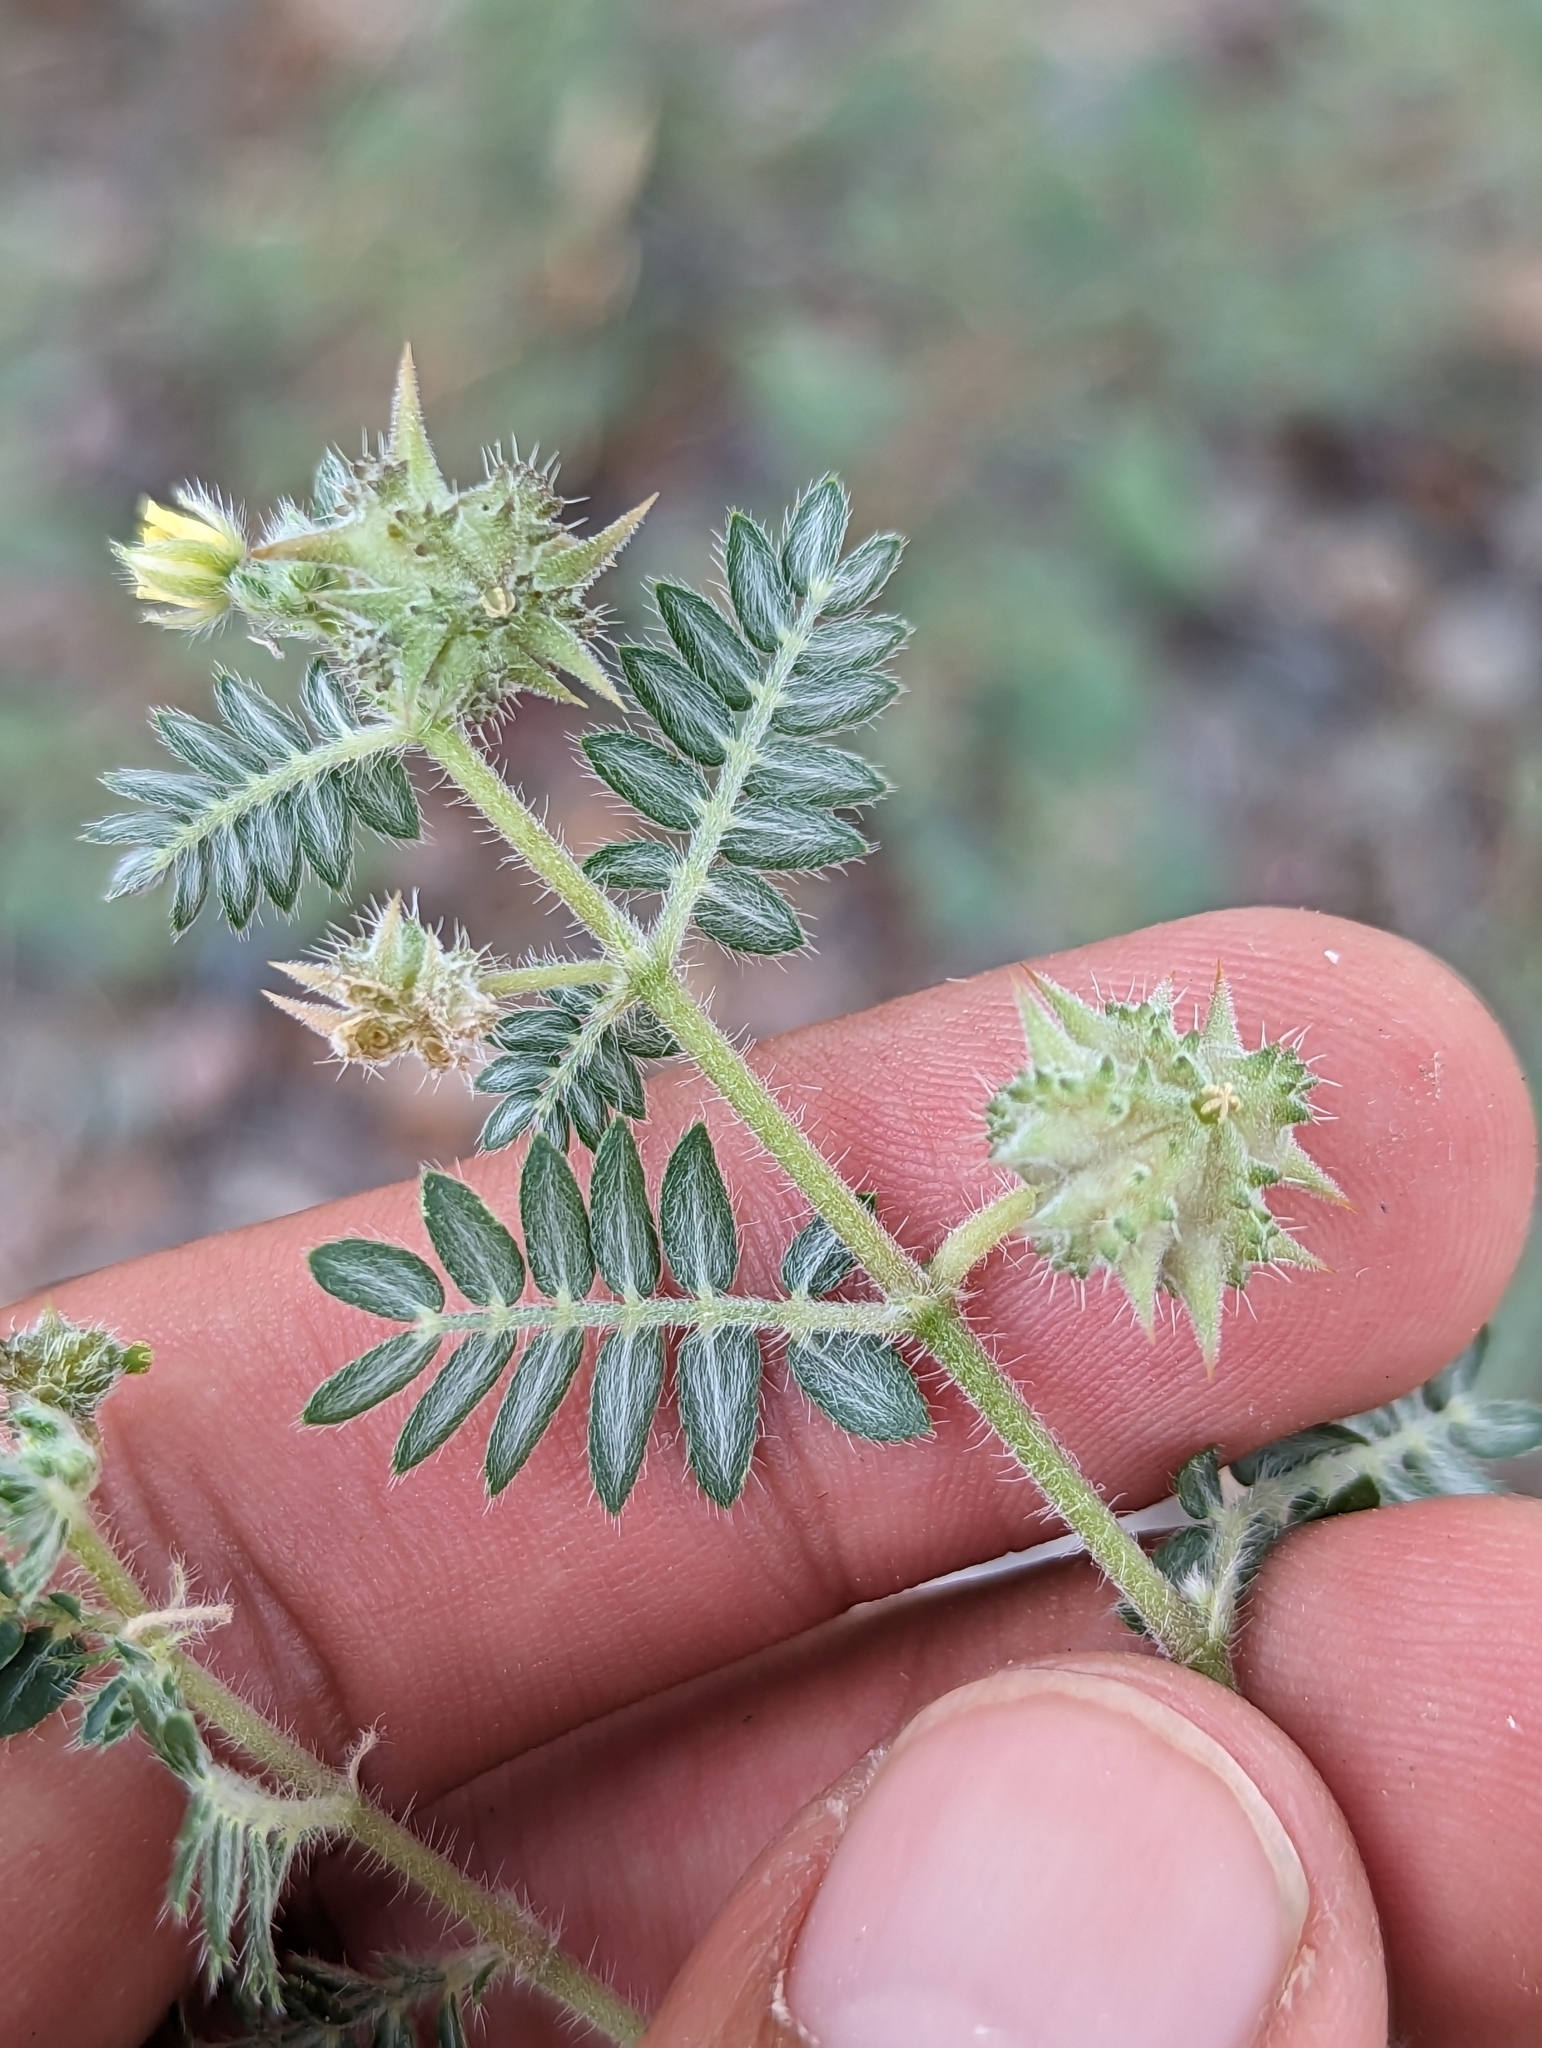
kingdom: Plantae
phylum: Tracheophyta
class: Magnoliopsida
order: Zygophyllales
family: Zygophyllaceae
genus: Tribulus
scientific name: Tribulus terrestris
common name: Puncturevine
